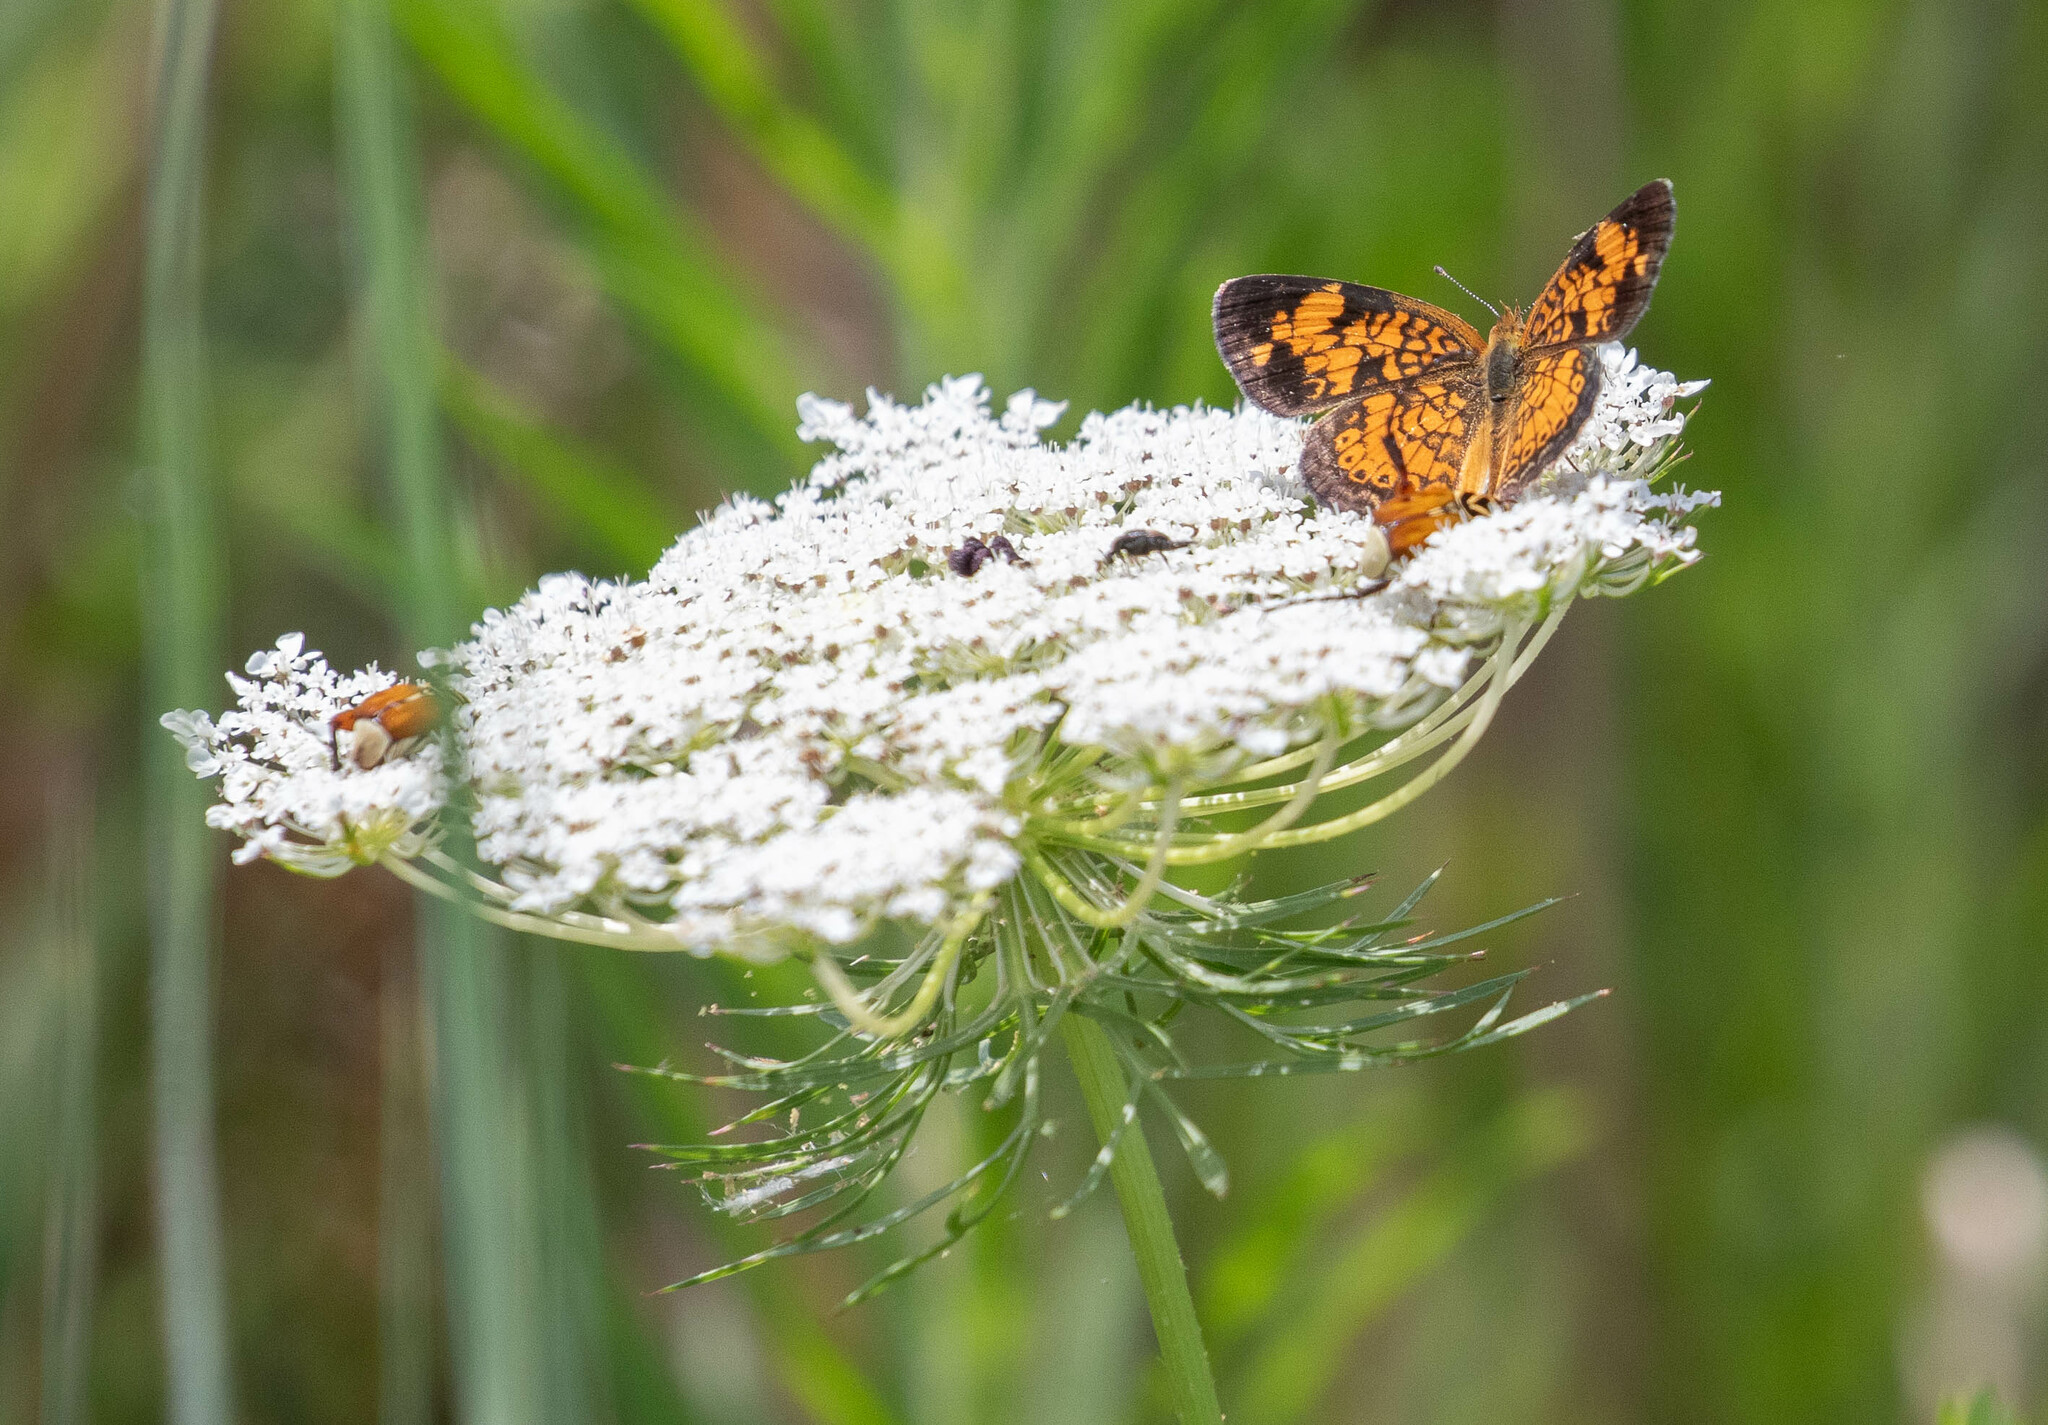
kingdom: Animalia
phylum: Arthropoda
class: Insecta
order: Lepidoptera
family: Nymphalidae
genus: Phyciodes
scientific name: Phyciodes tharos
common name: Pearl crescent
